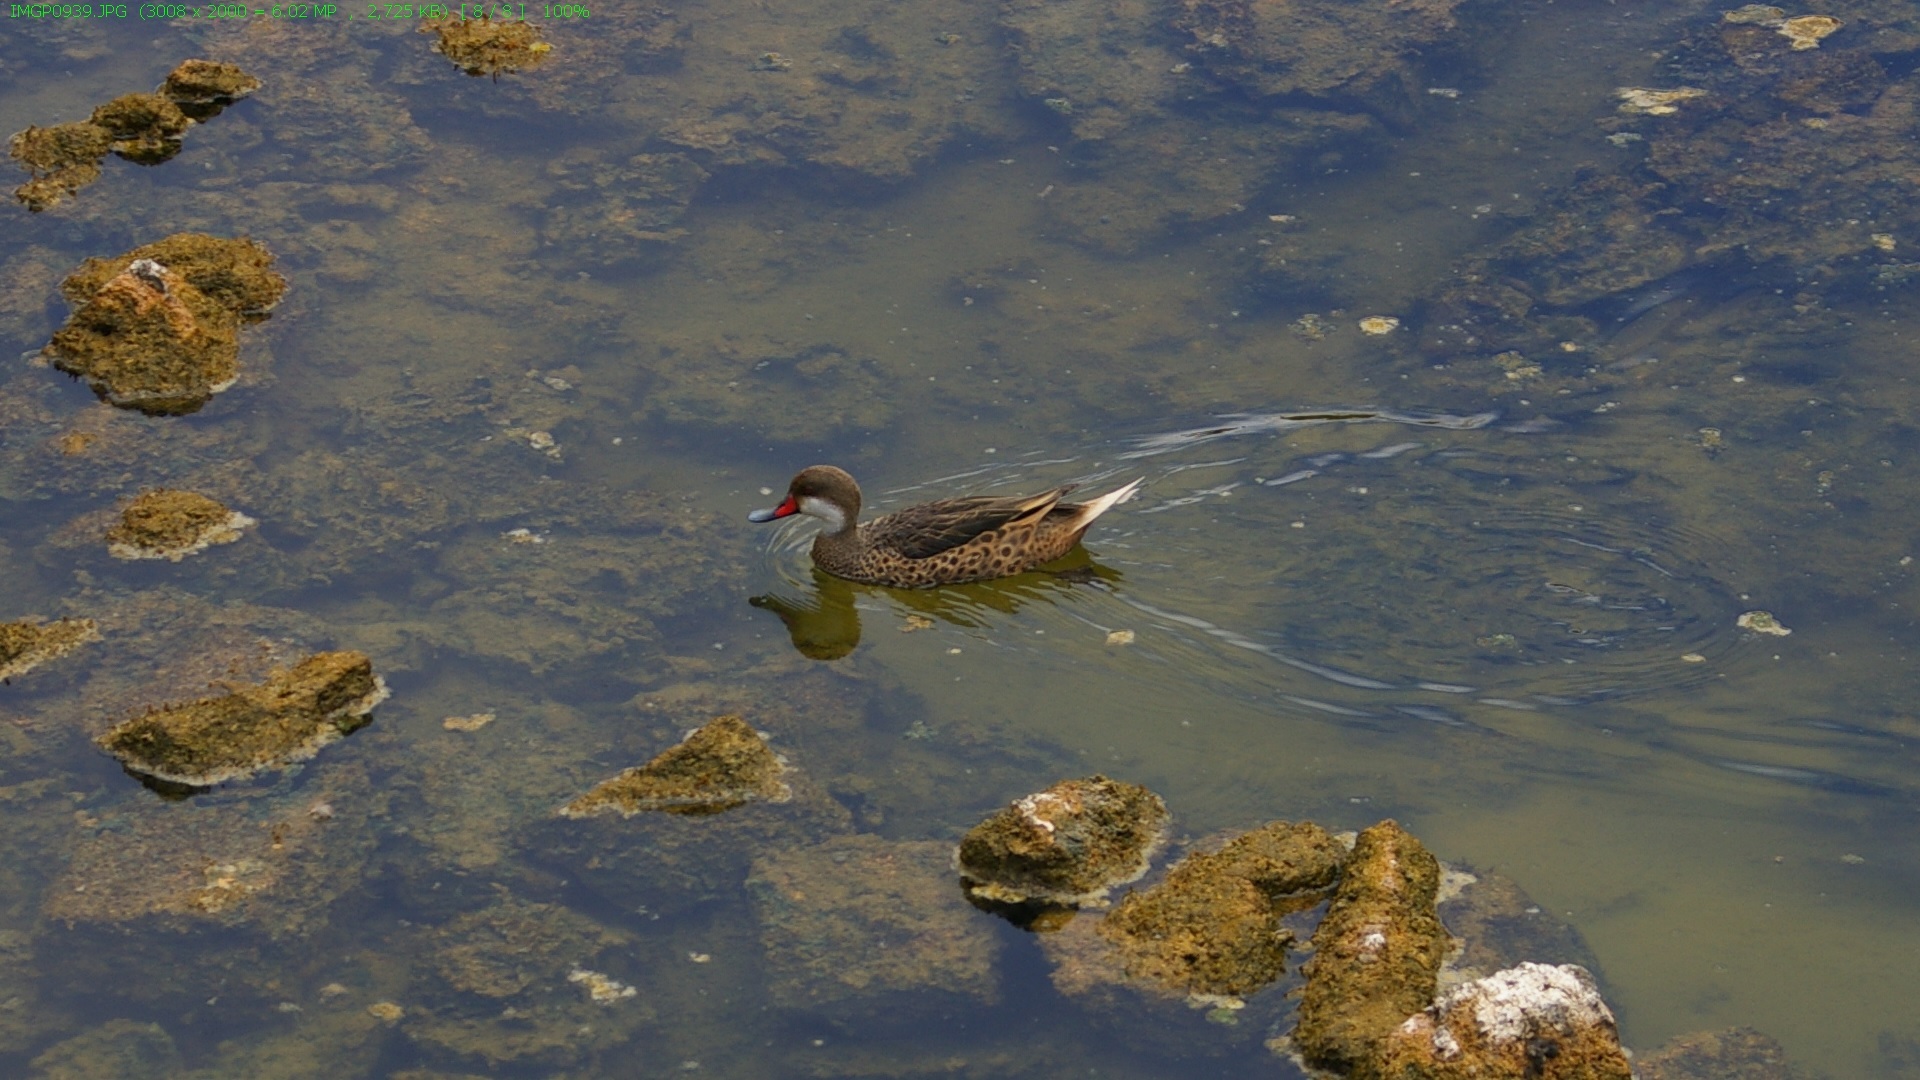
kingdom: Animalia
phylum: Chordata
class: Aves
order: Anseriformes
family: Anatidae
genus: Anas
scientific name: Anas bahamensis
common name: White-cheeked pintail
